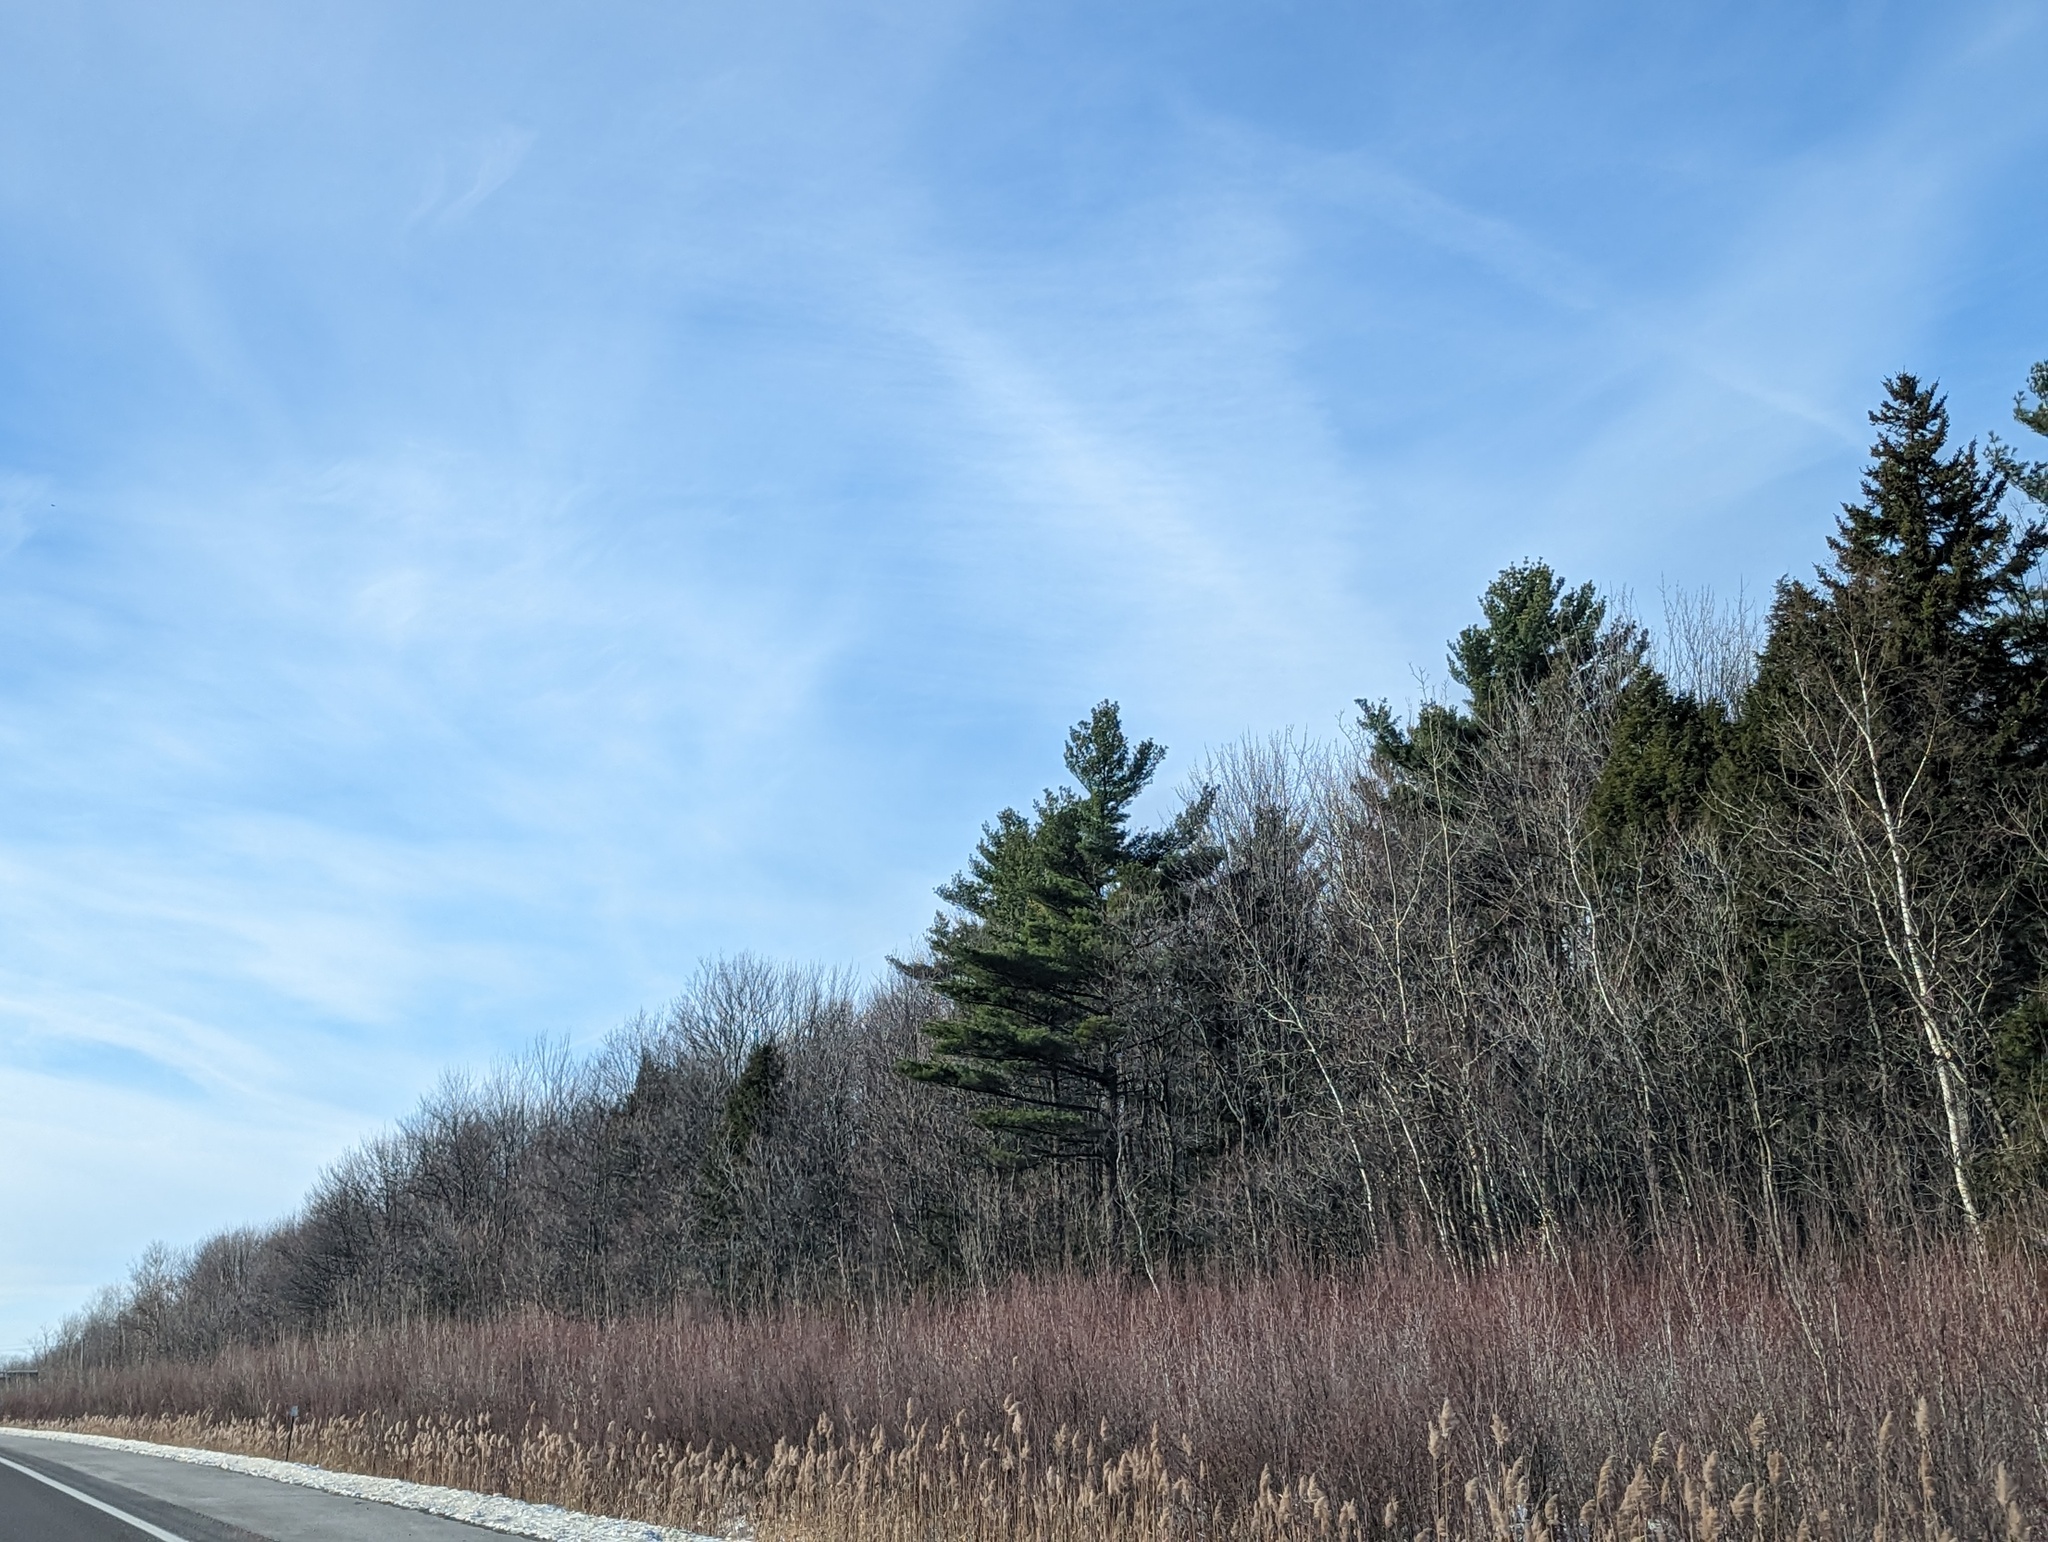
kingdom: Plantae
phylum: Tracheophyta
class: Pinopsida
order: Pinales
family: Pinaceae
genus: Pinus
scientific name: Pinus strobus
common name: Weymouth pine
